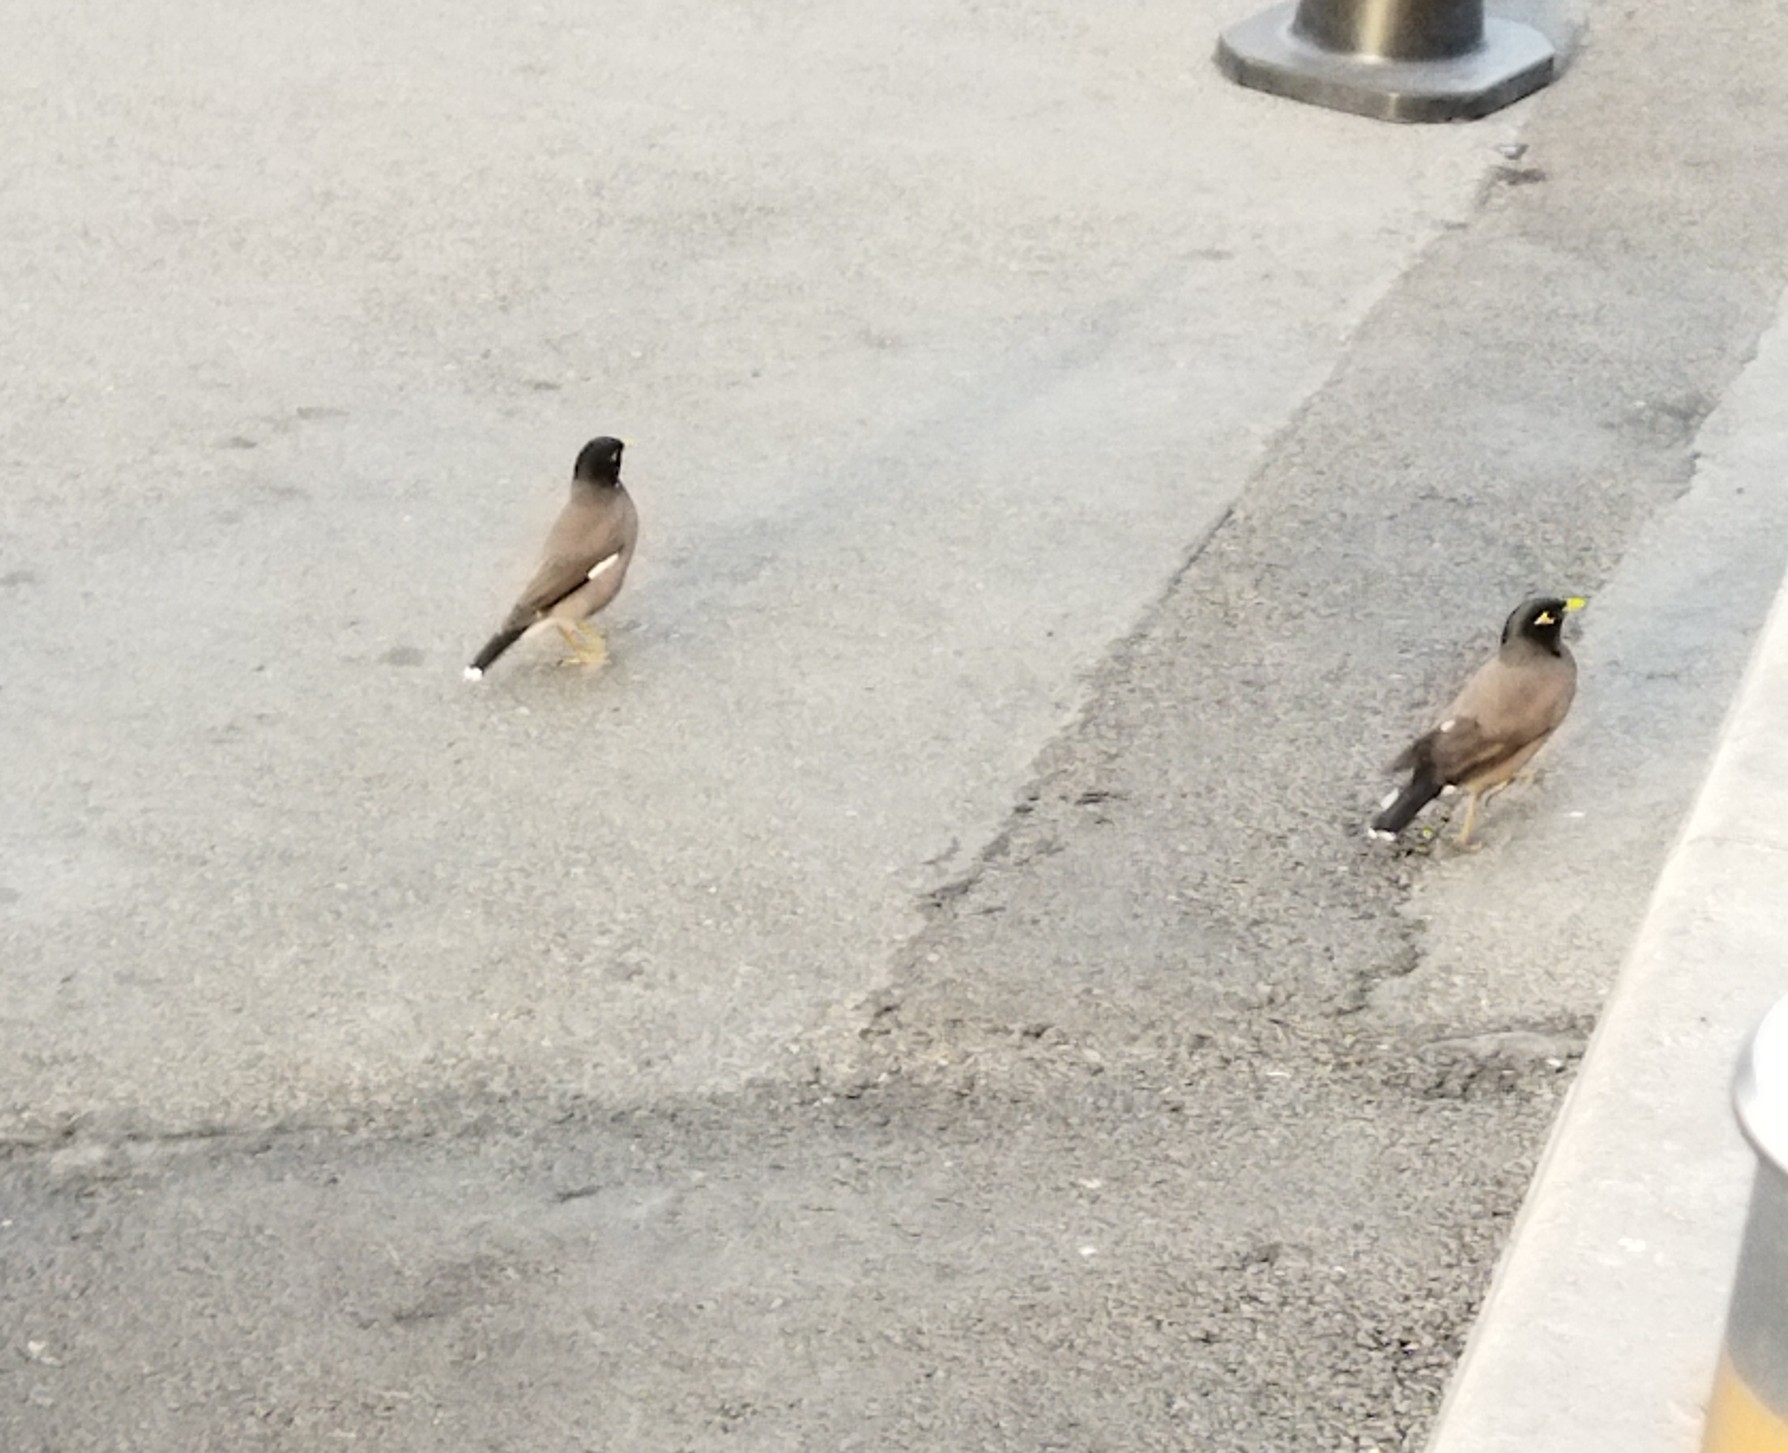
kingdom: Animalia
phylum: Chordata
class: Aves
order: Passeriformes
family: Sturnidae
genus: Acridotheres
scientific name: Acridotheres tristis
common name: Common myna
